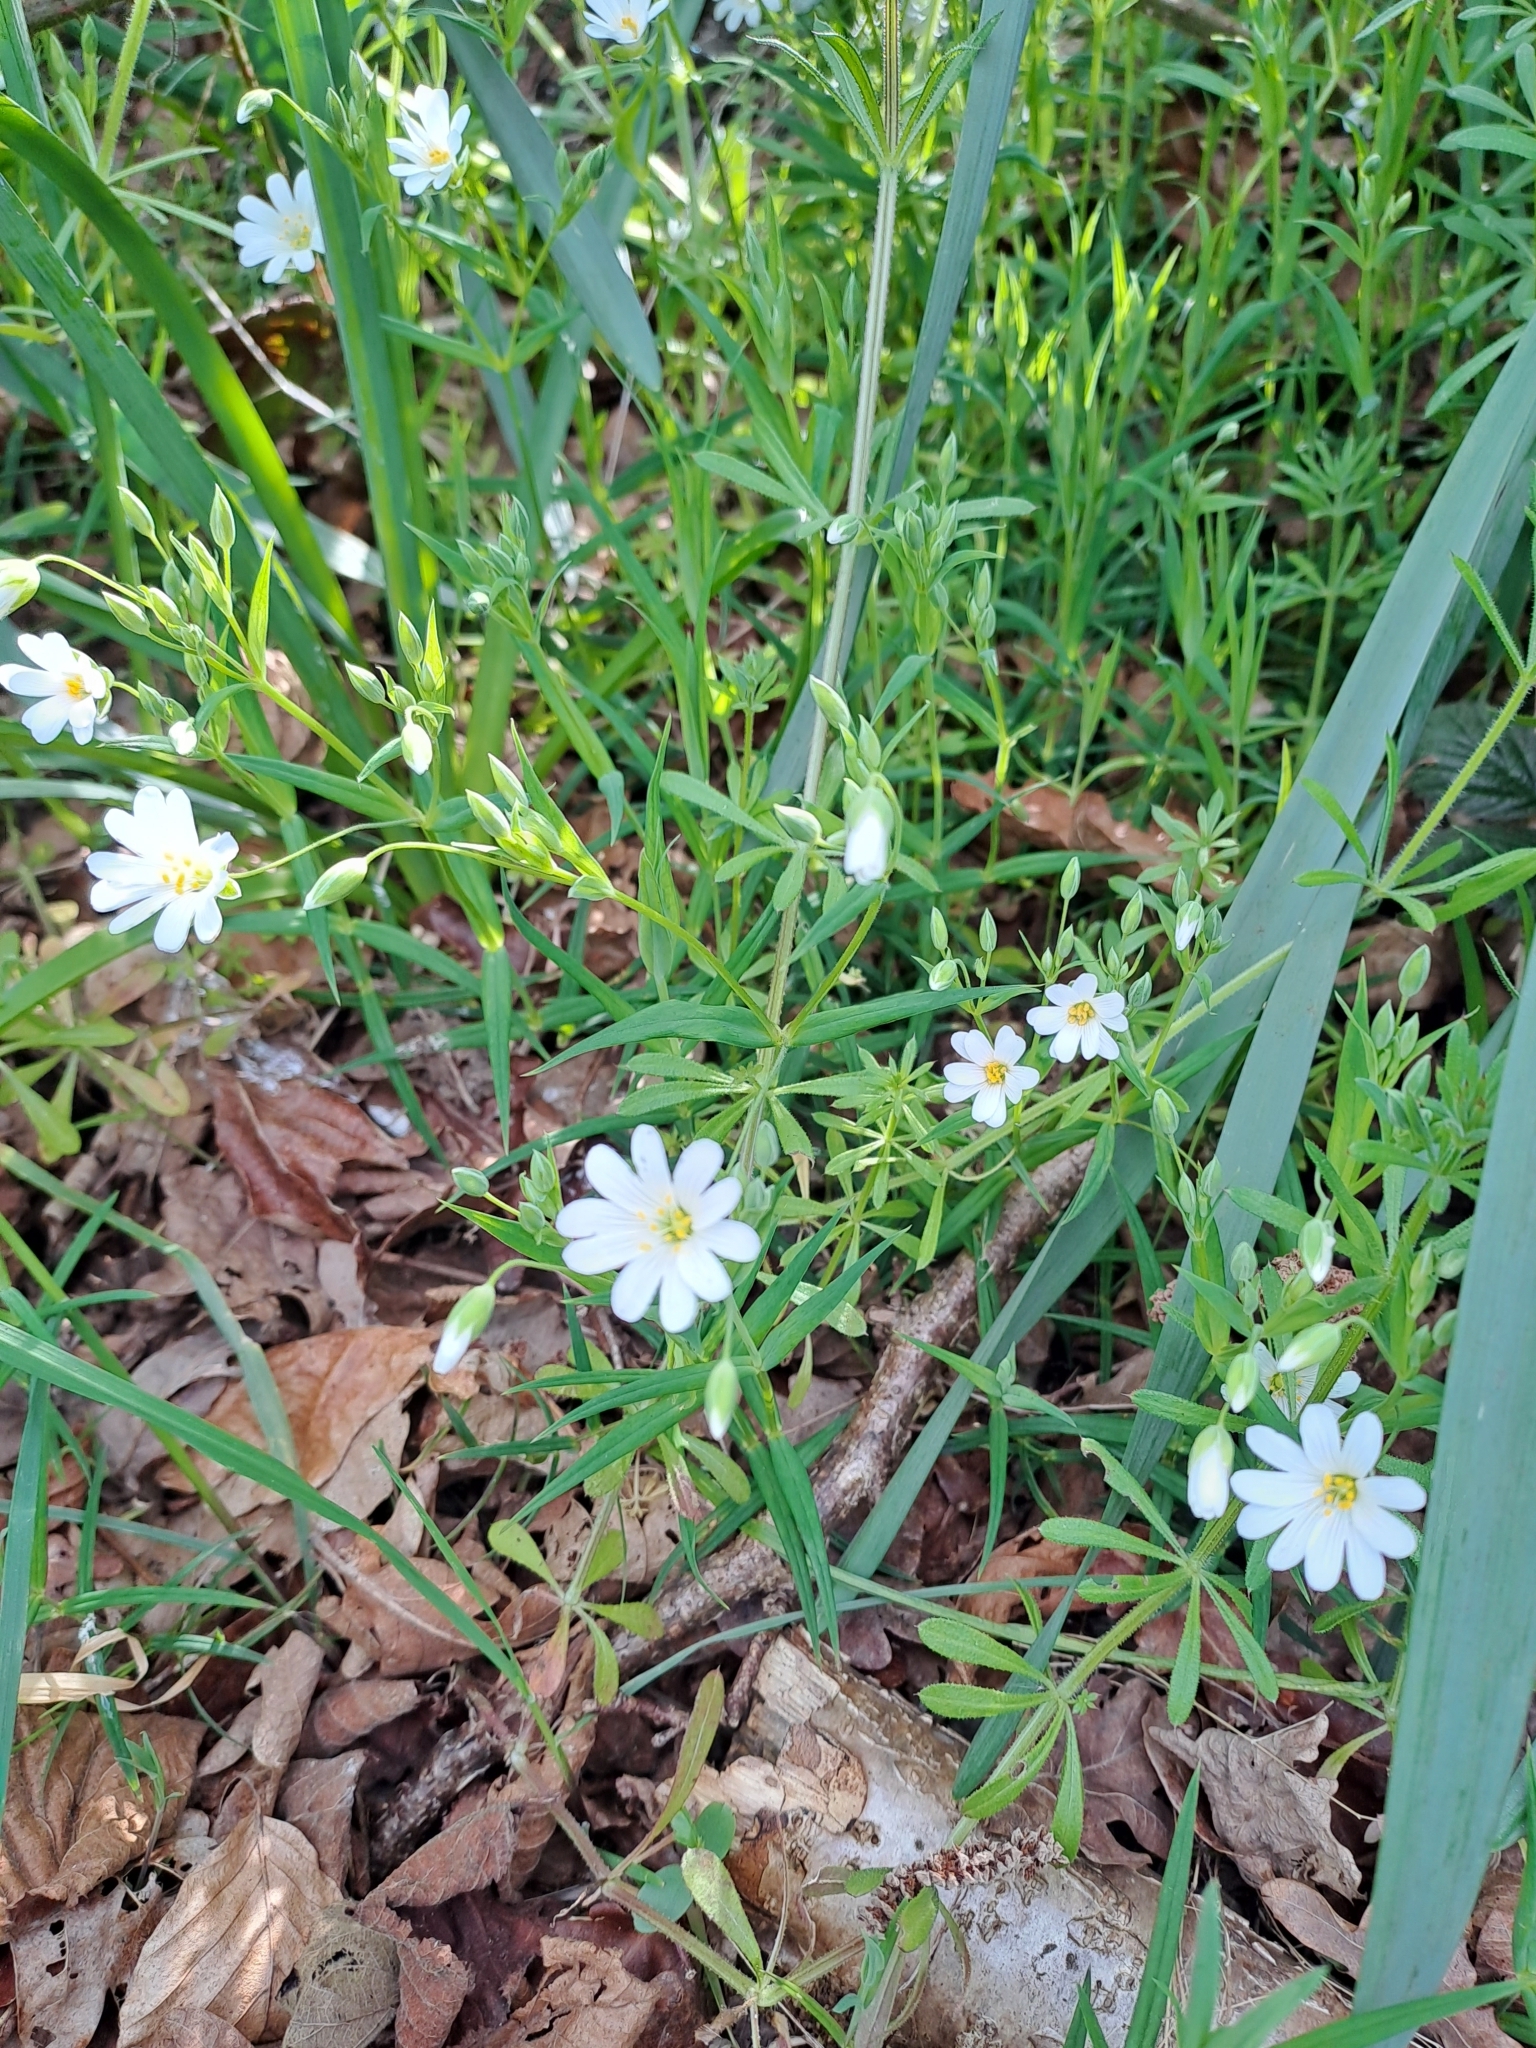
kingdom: Plantae
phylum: Tracheophyta
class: Magnoliopsida
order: Caryophyllales
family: Caryophyllaceae
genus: Rabelera
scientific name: Rabelera holostea
